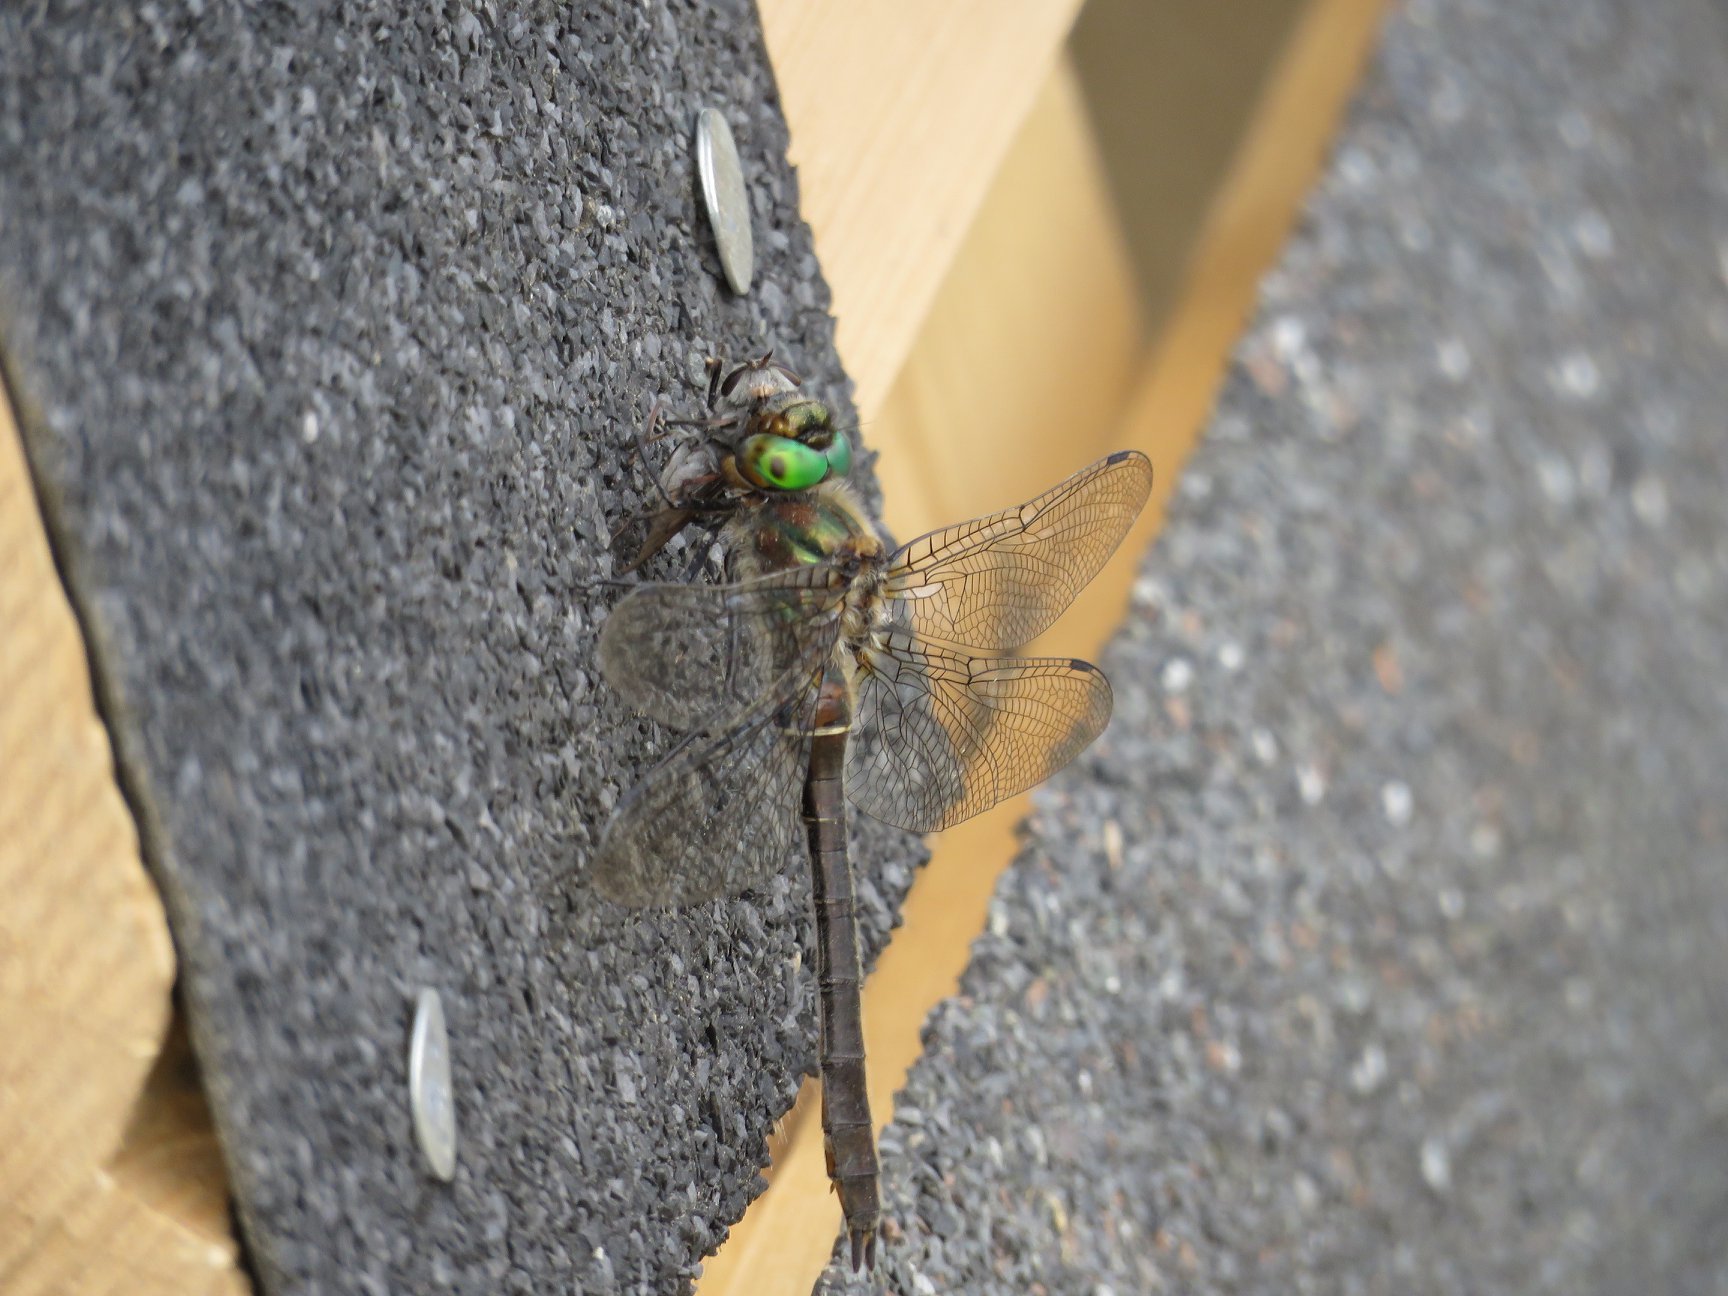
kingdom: Animalia
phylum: Arthropoda
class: Insecta
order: Odonata
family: Corduliidae
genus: Cordulia
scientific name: Cordulia shurtleffii
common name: American emerald
